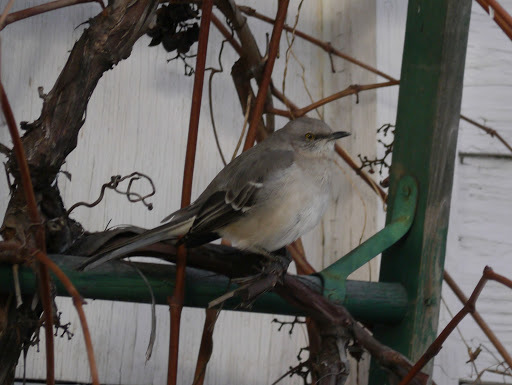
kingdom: Animalia
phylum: Chordata
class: Aves
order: Passeriformes
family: Mimidae
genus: Mimus
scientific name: Mimus polyglottos
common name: Northern mockingbird
